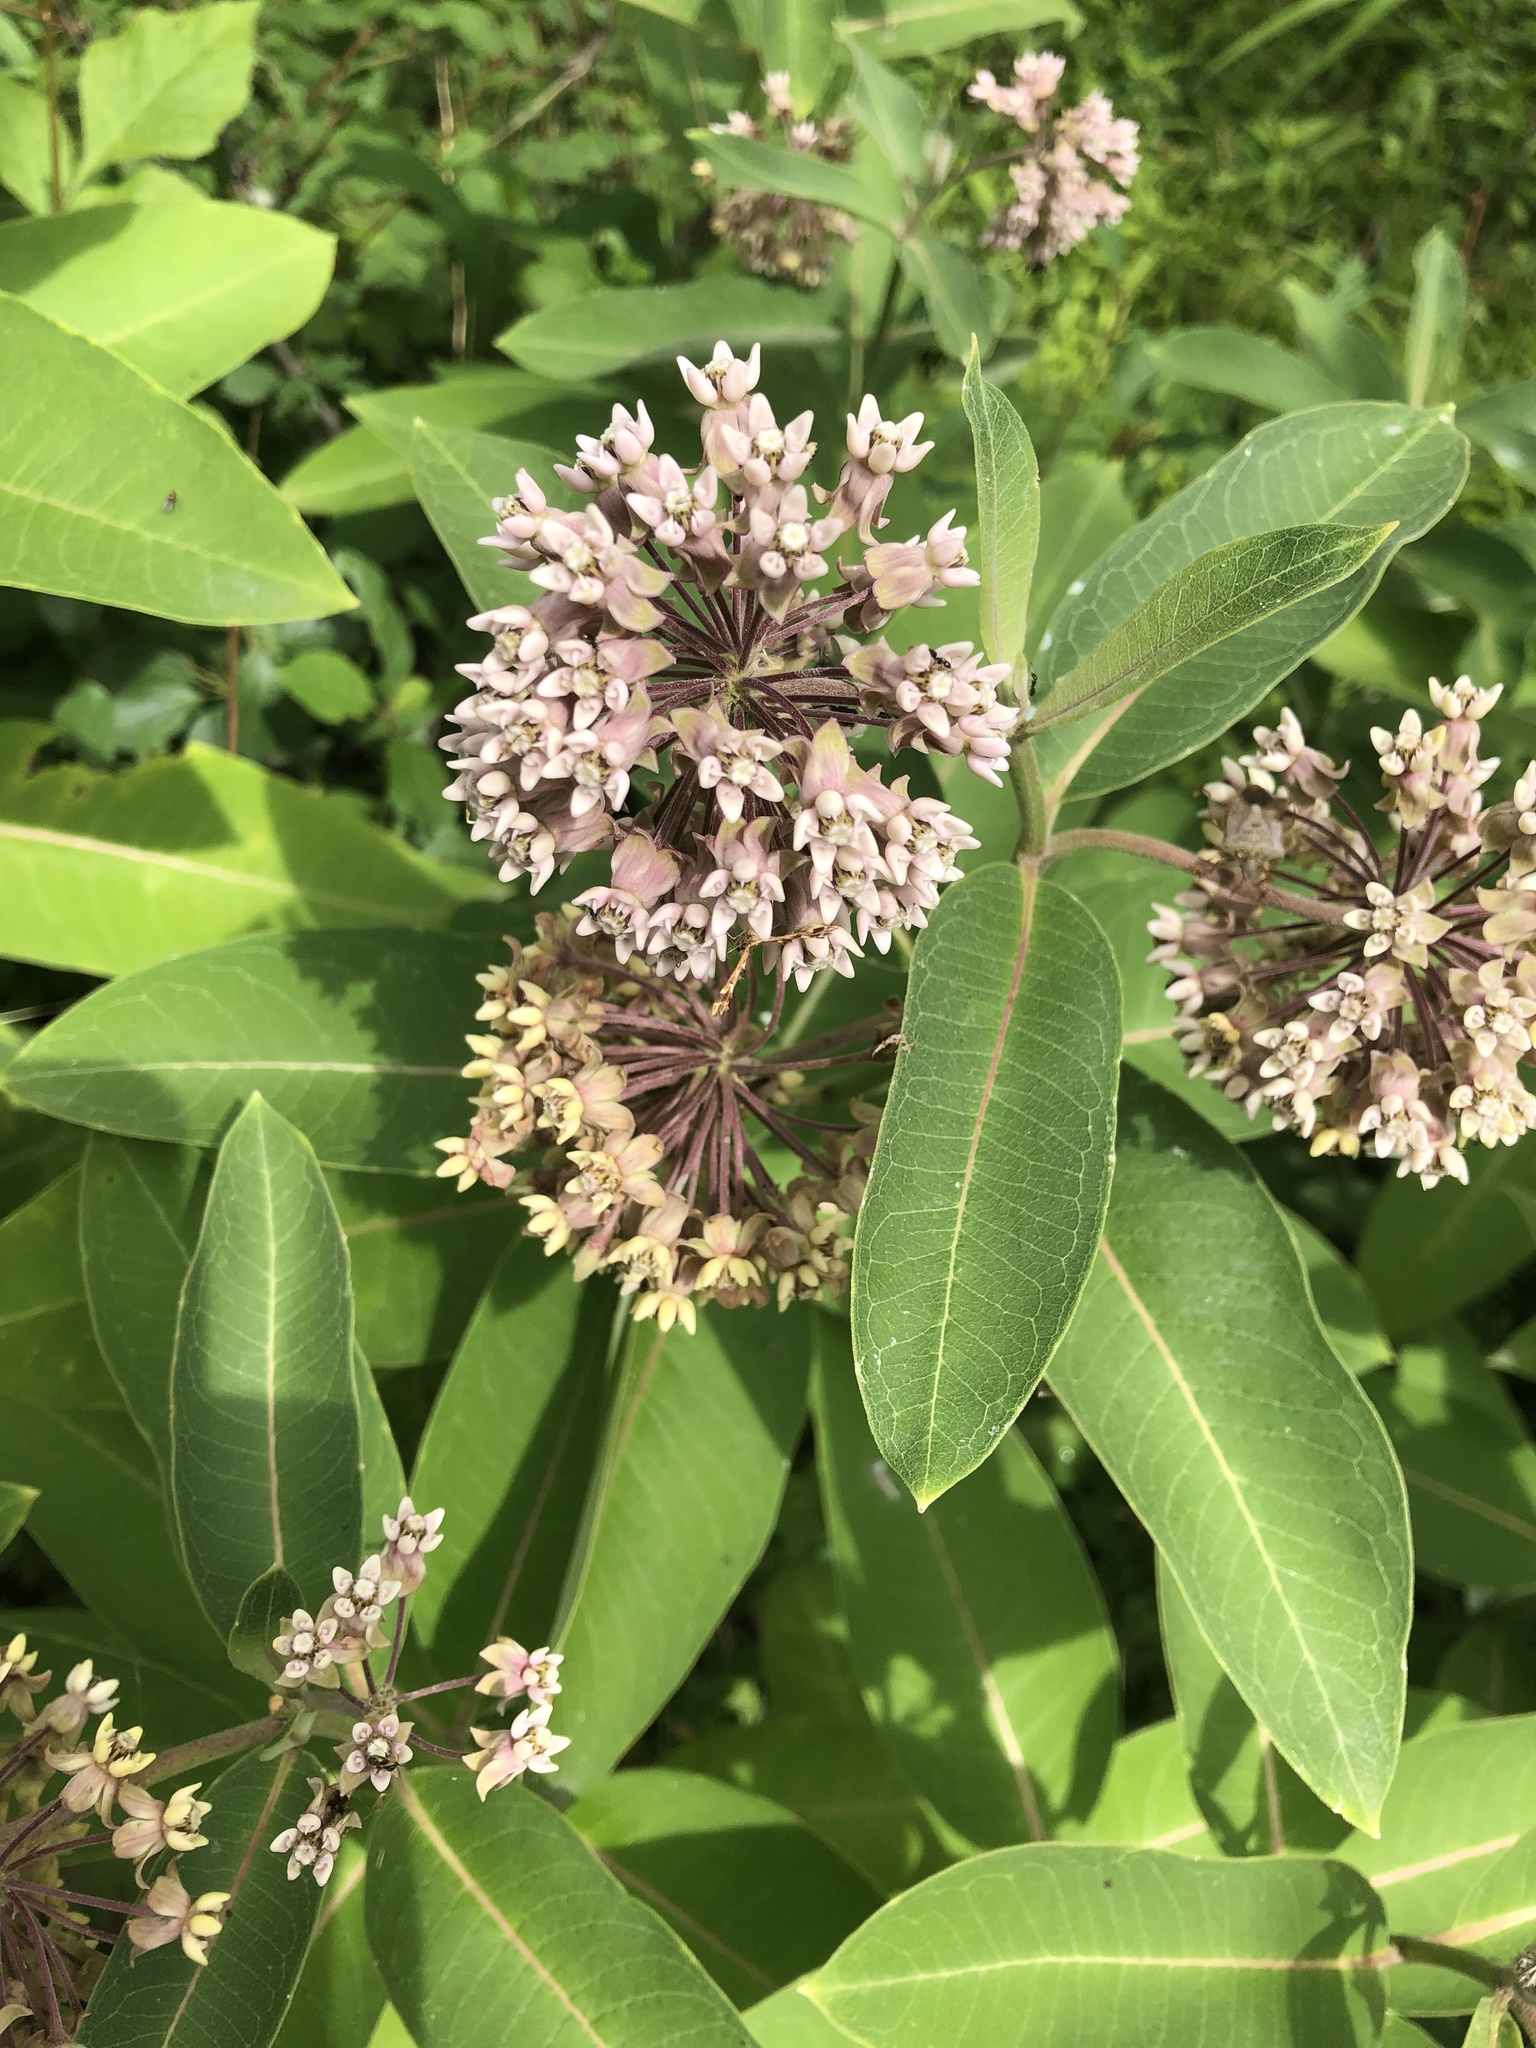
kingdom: Plantae
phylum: Tracheophyta
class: Magnoliopsida
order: Gentianales
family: Apocynaceae
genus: Asclepias
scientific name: Asclepias syriaca
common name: Common milkweed
